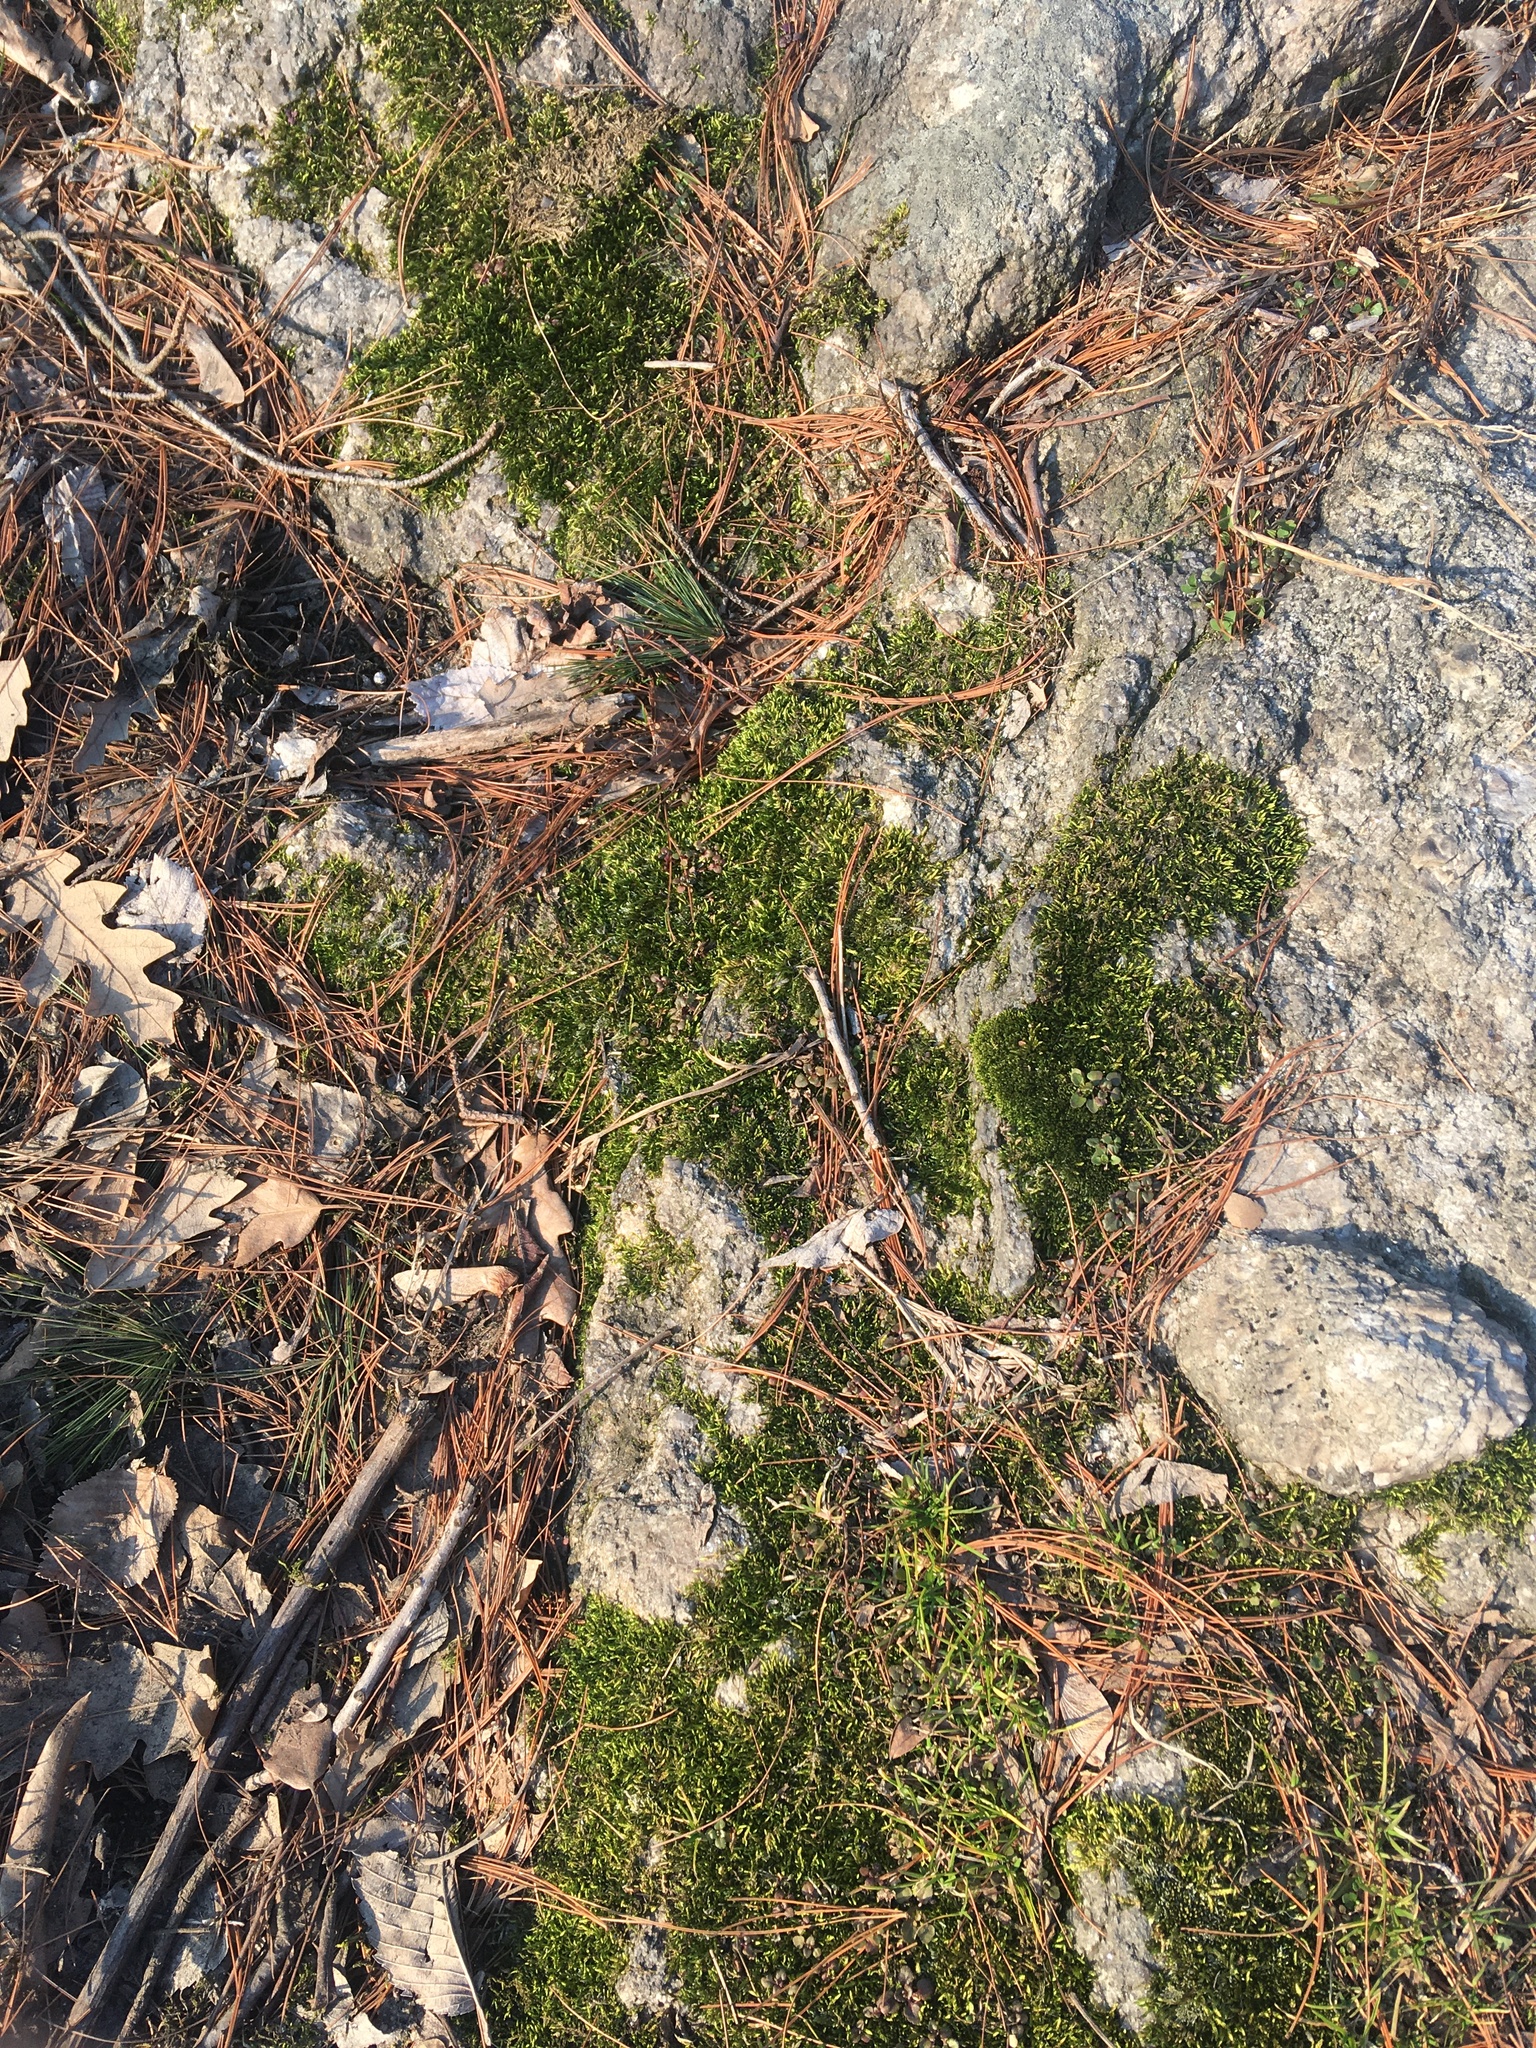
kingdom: Plantae
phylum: Bryophyta
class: Bryopsida
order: Hypnales
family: Entodontaceae
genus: Entodon
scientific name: Entodon seductrix
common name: Round-stemmed entodon moss
